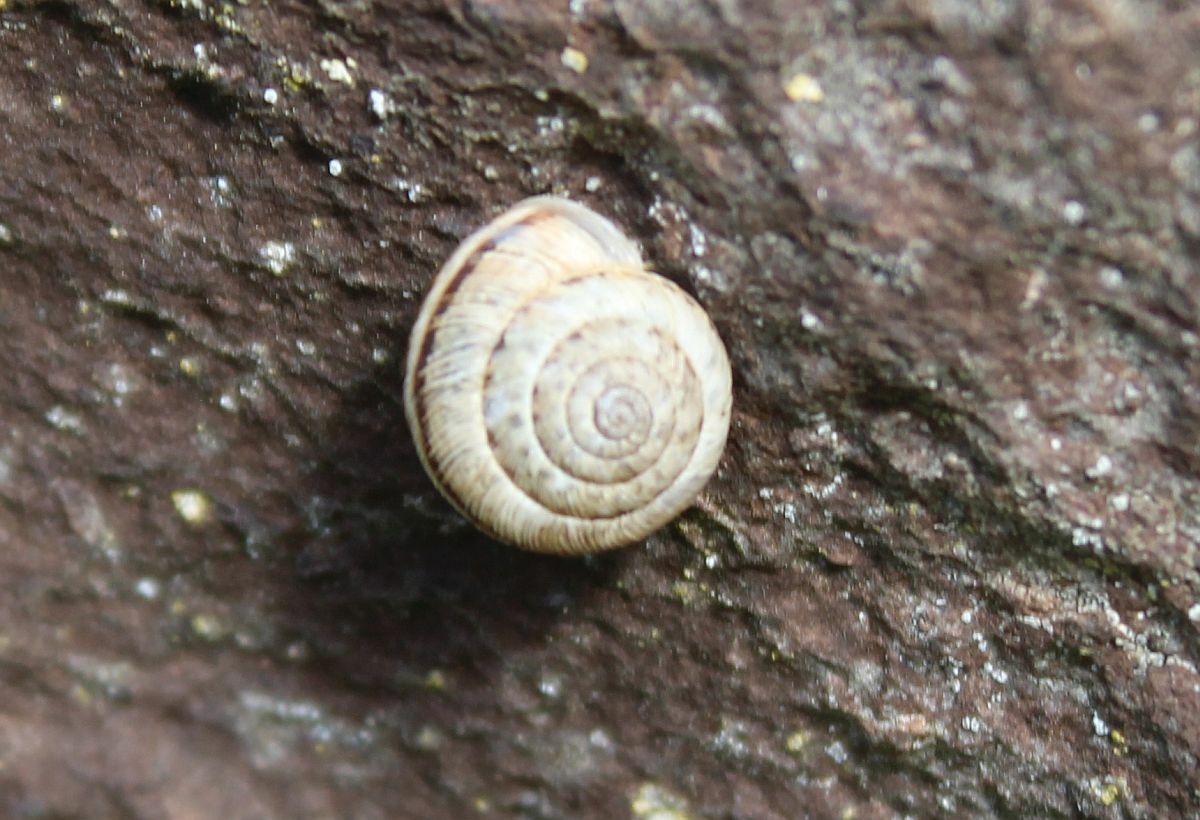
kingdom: Animalia
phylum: Mollusca
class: Gastropoda
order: Stylommatophora
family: Geomitridae
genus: Xeroplexa
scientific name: Xeroplexa intersecta
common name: Wrinkled snail
